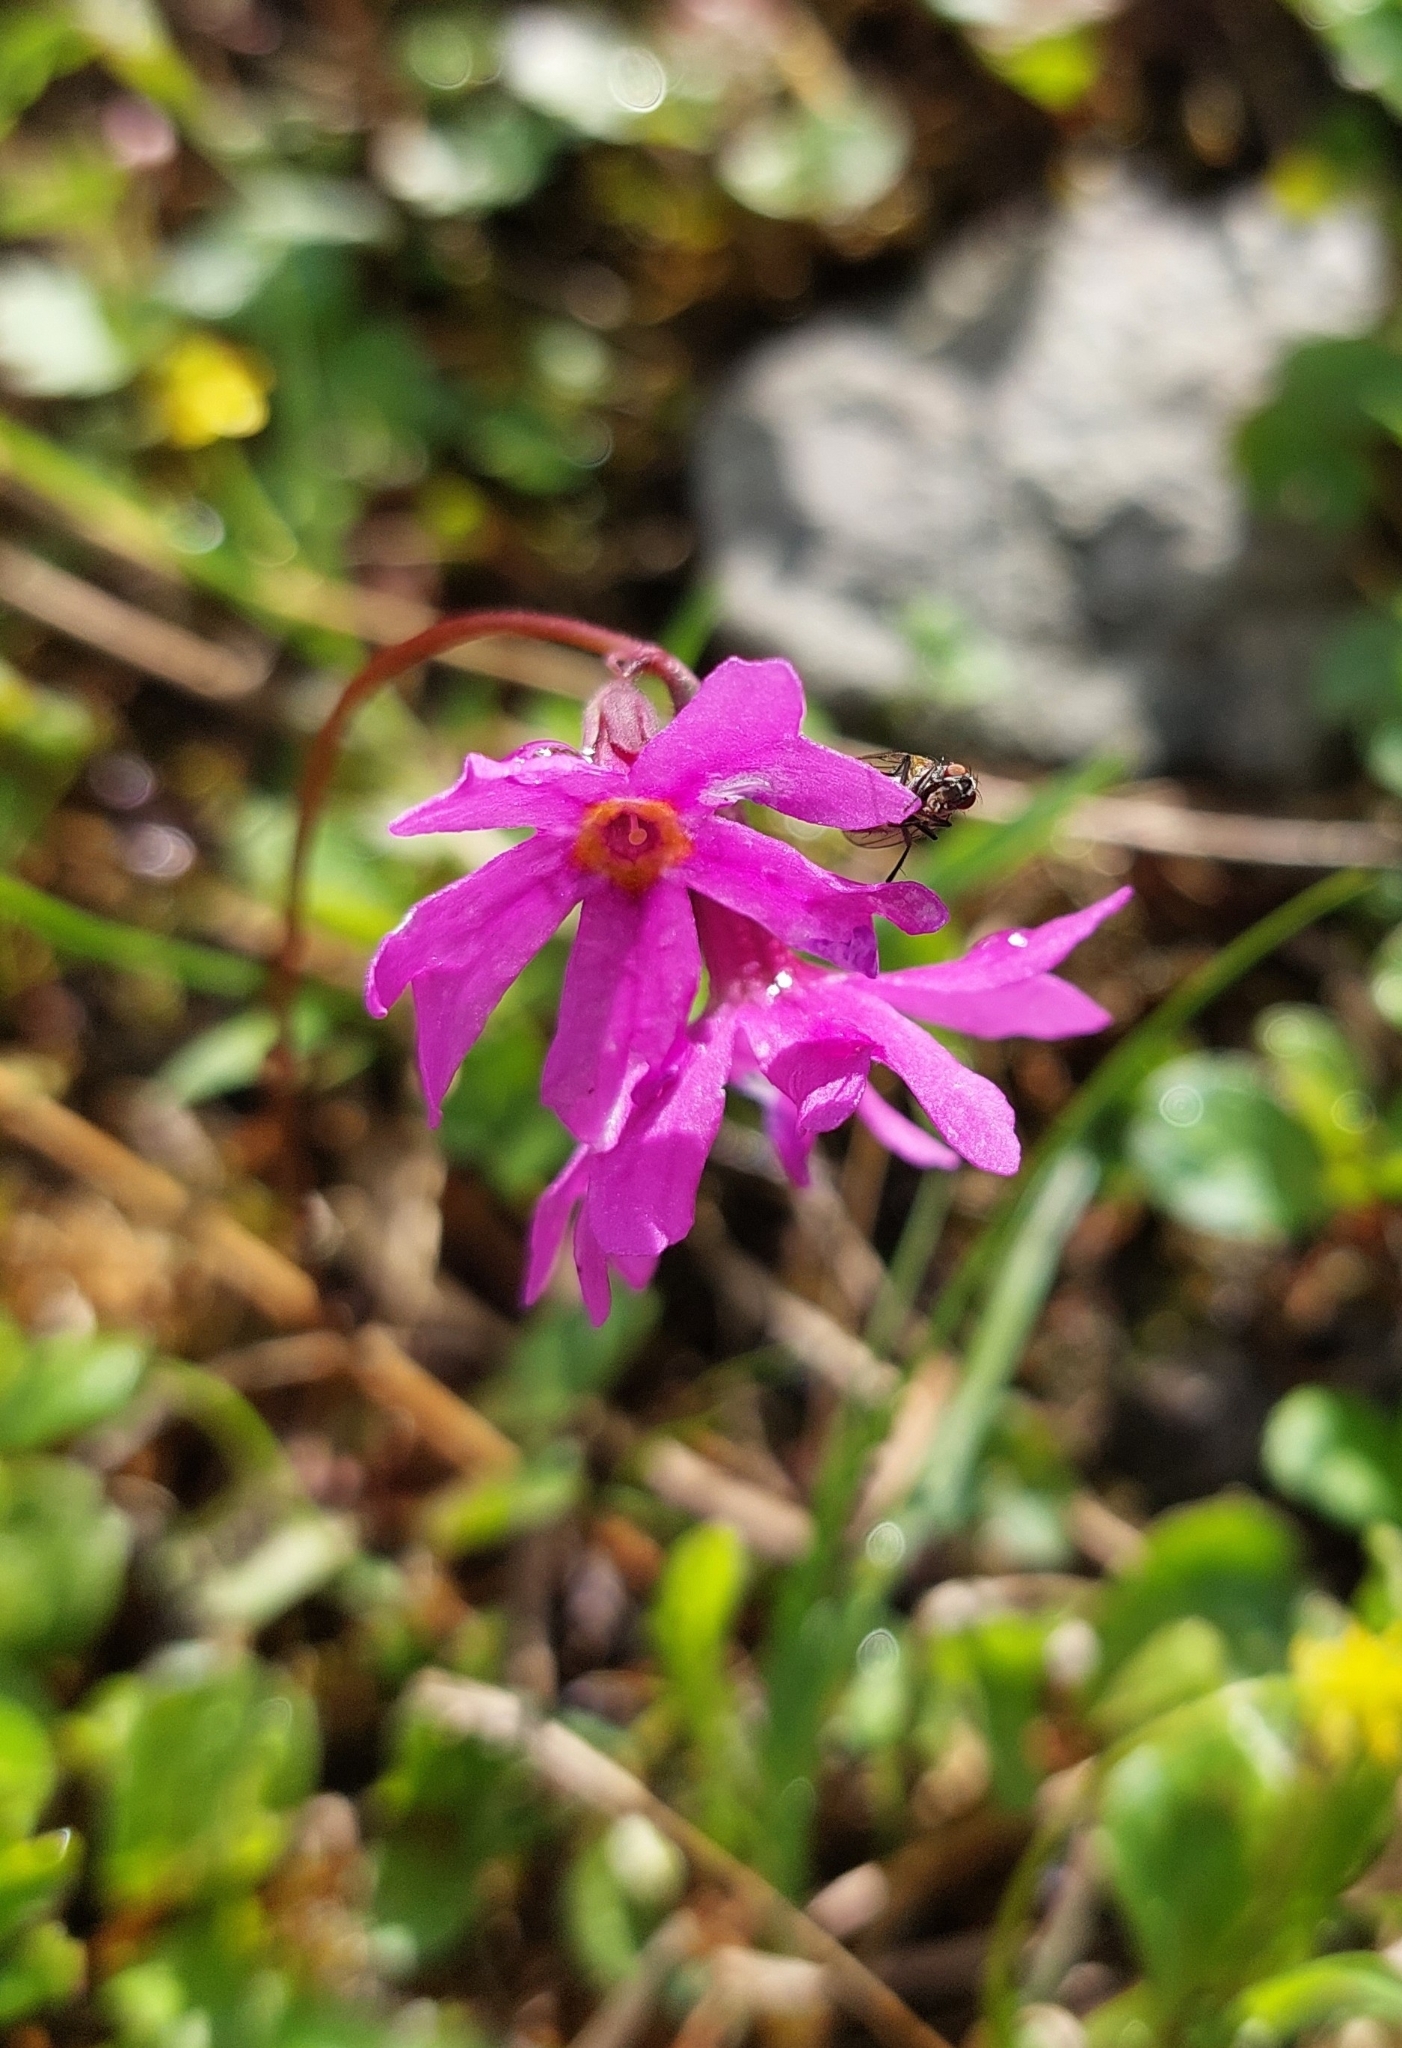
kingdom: Plantae
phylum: Tracheophyta
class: Magnoliopsida
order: Ericales
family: Primulaceae
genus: Primula
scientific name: Primula cuneifolia
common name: Wedge-leaved primrose
